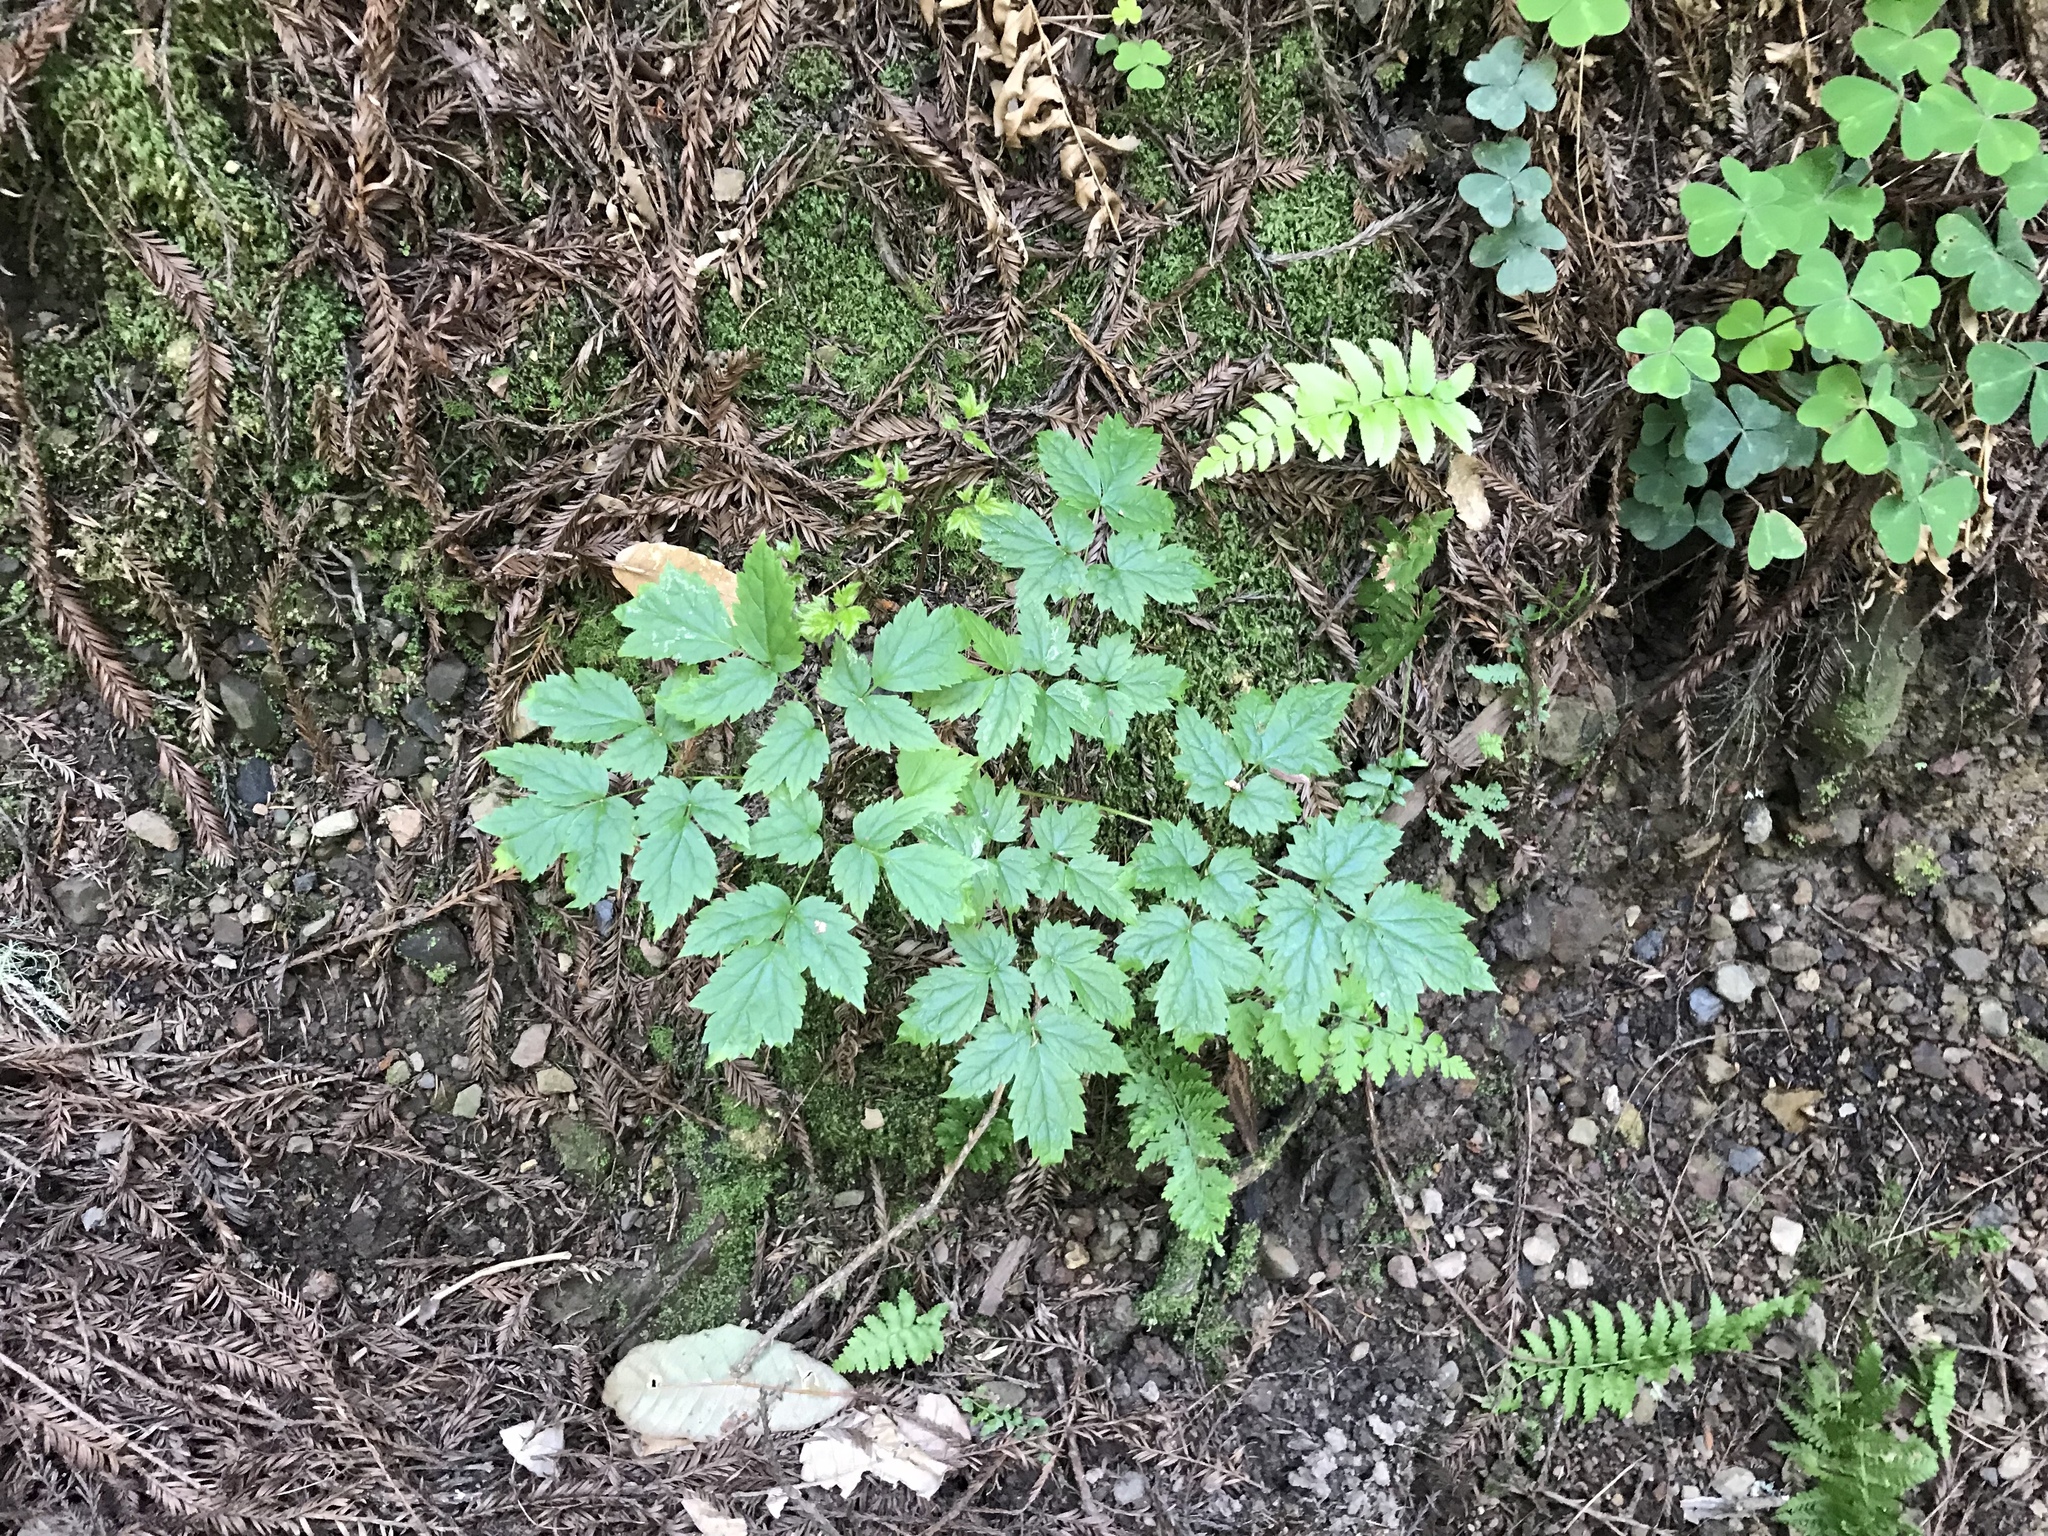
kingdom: Plantae
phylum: Tracheophyta
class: Magnoliopsida
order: Ranunculales
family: Ranunculaceae
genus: Actaea
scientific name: Actaea rubra
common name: Red baneberry
